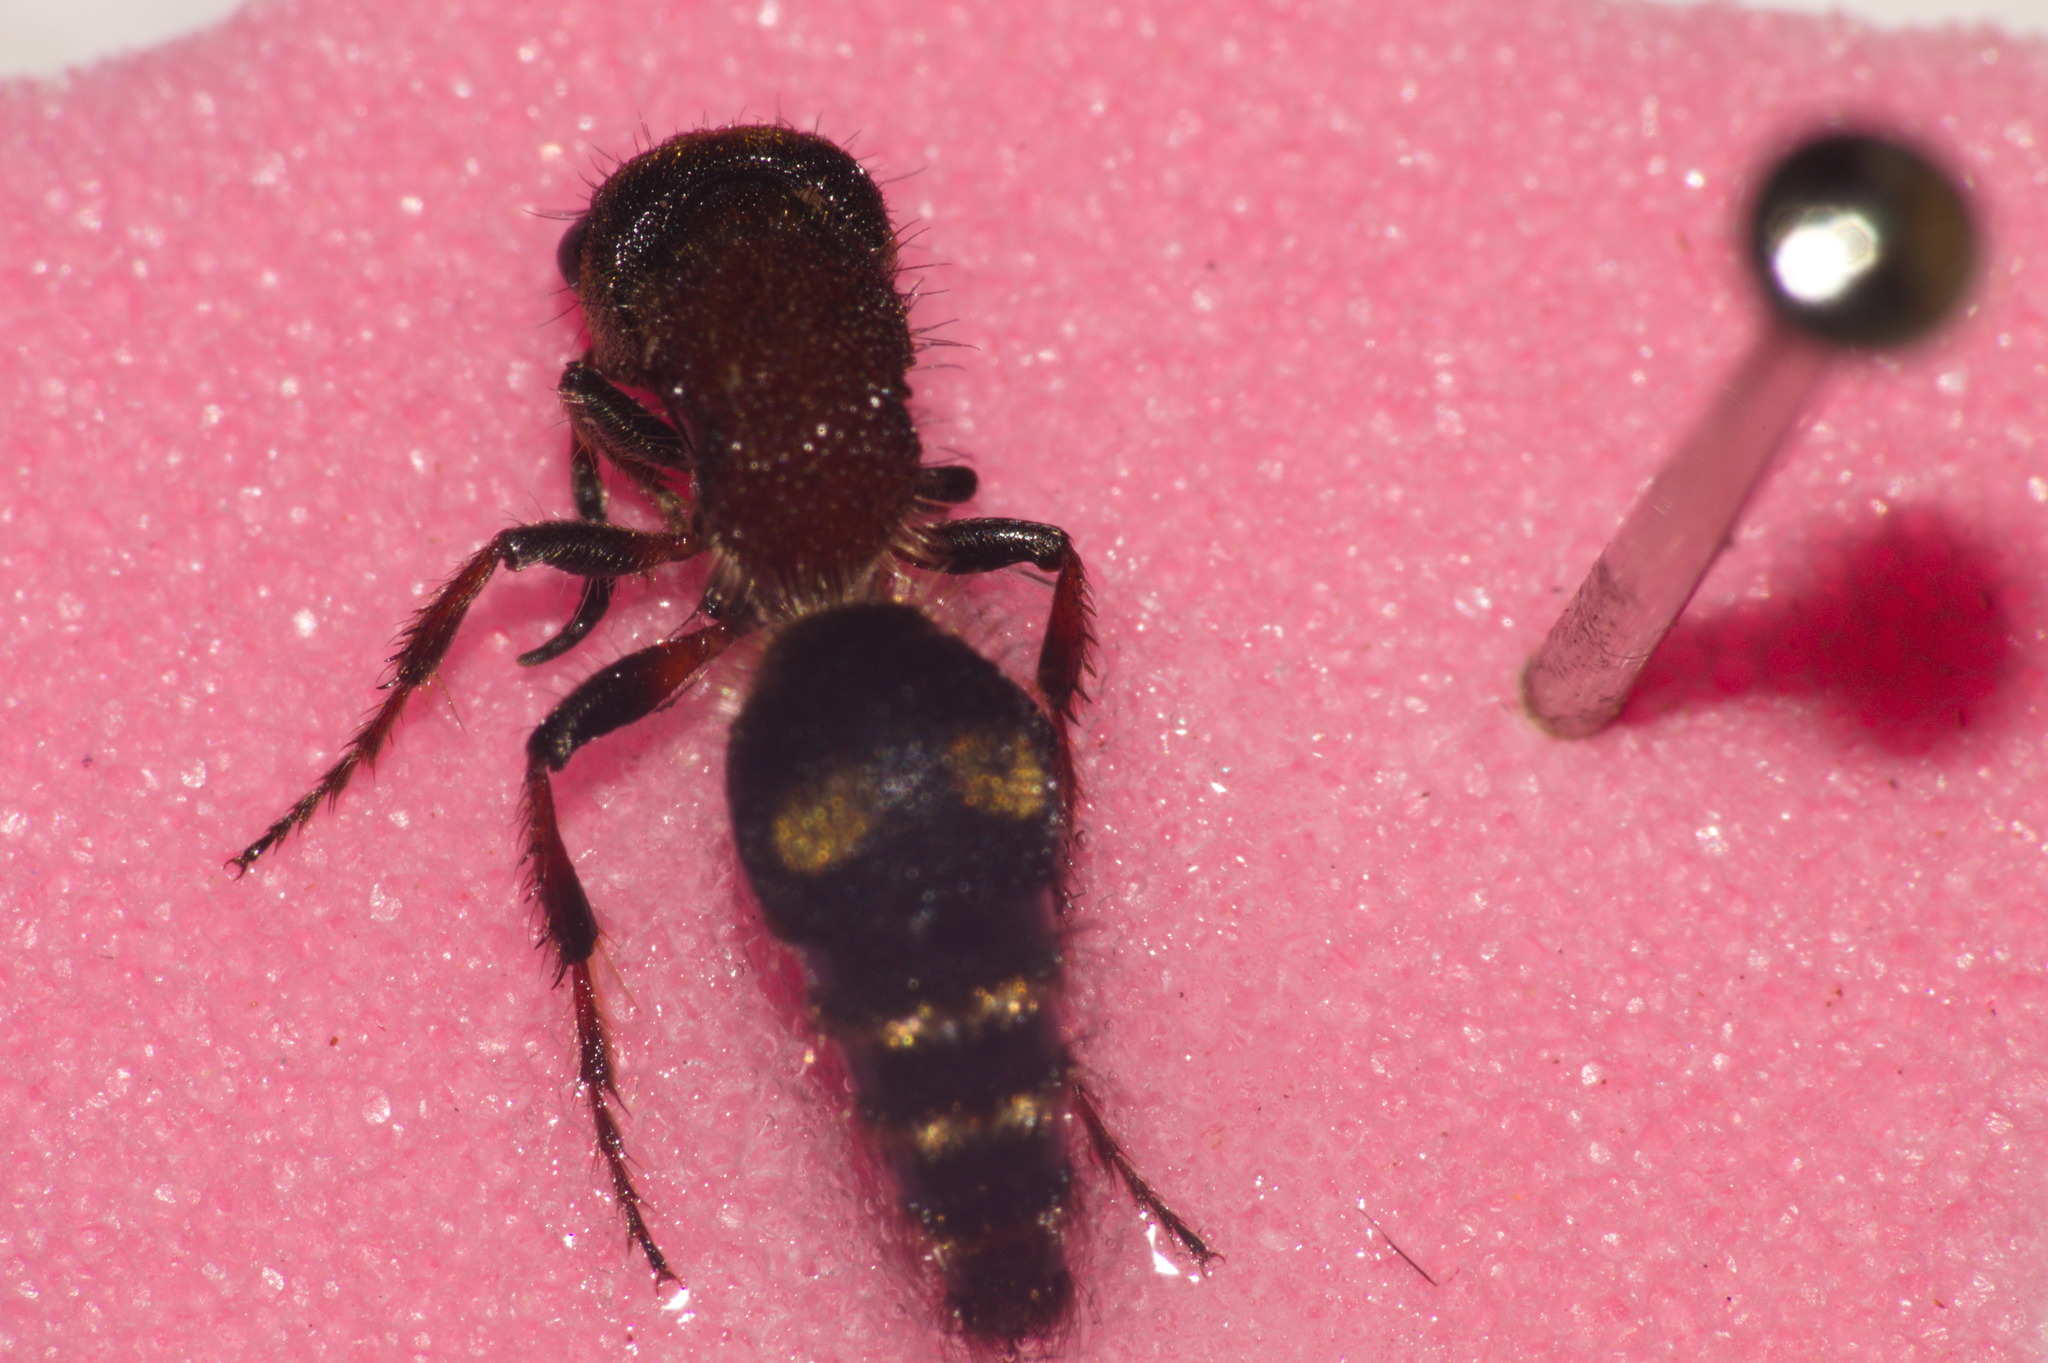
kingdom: Animalia
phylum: Arthropoda
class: Insecta
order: Hymenoptera
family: Mutillidae
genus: Anomophotopsis
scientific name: Anomophotopsis
